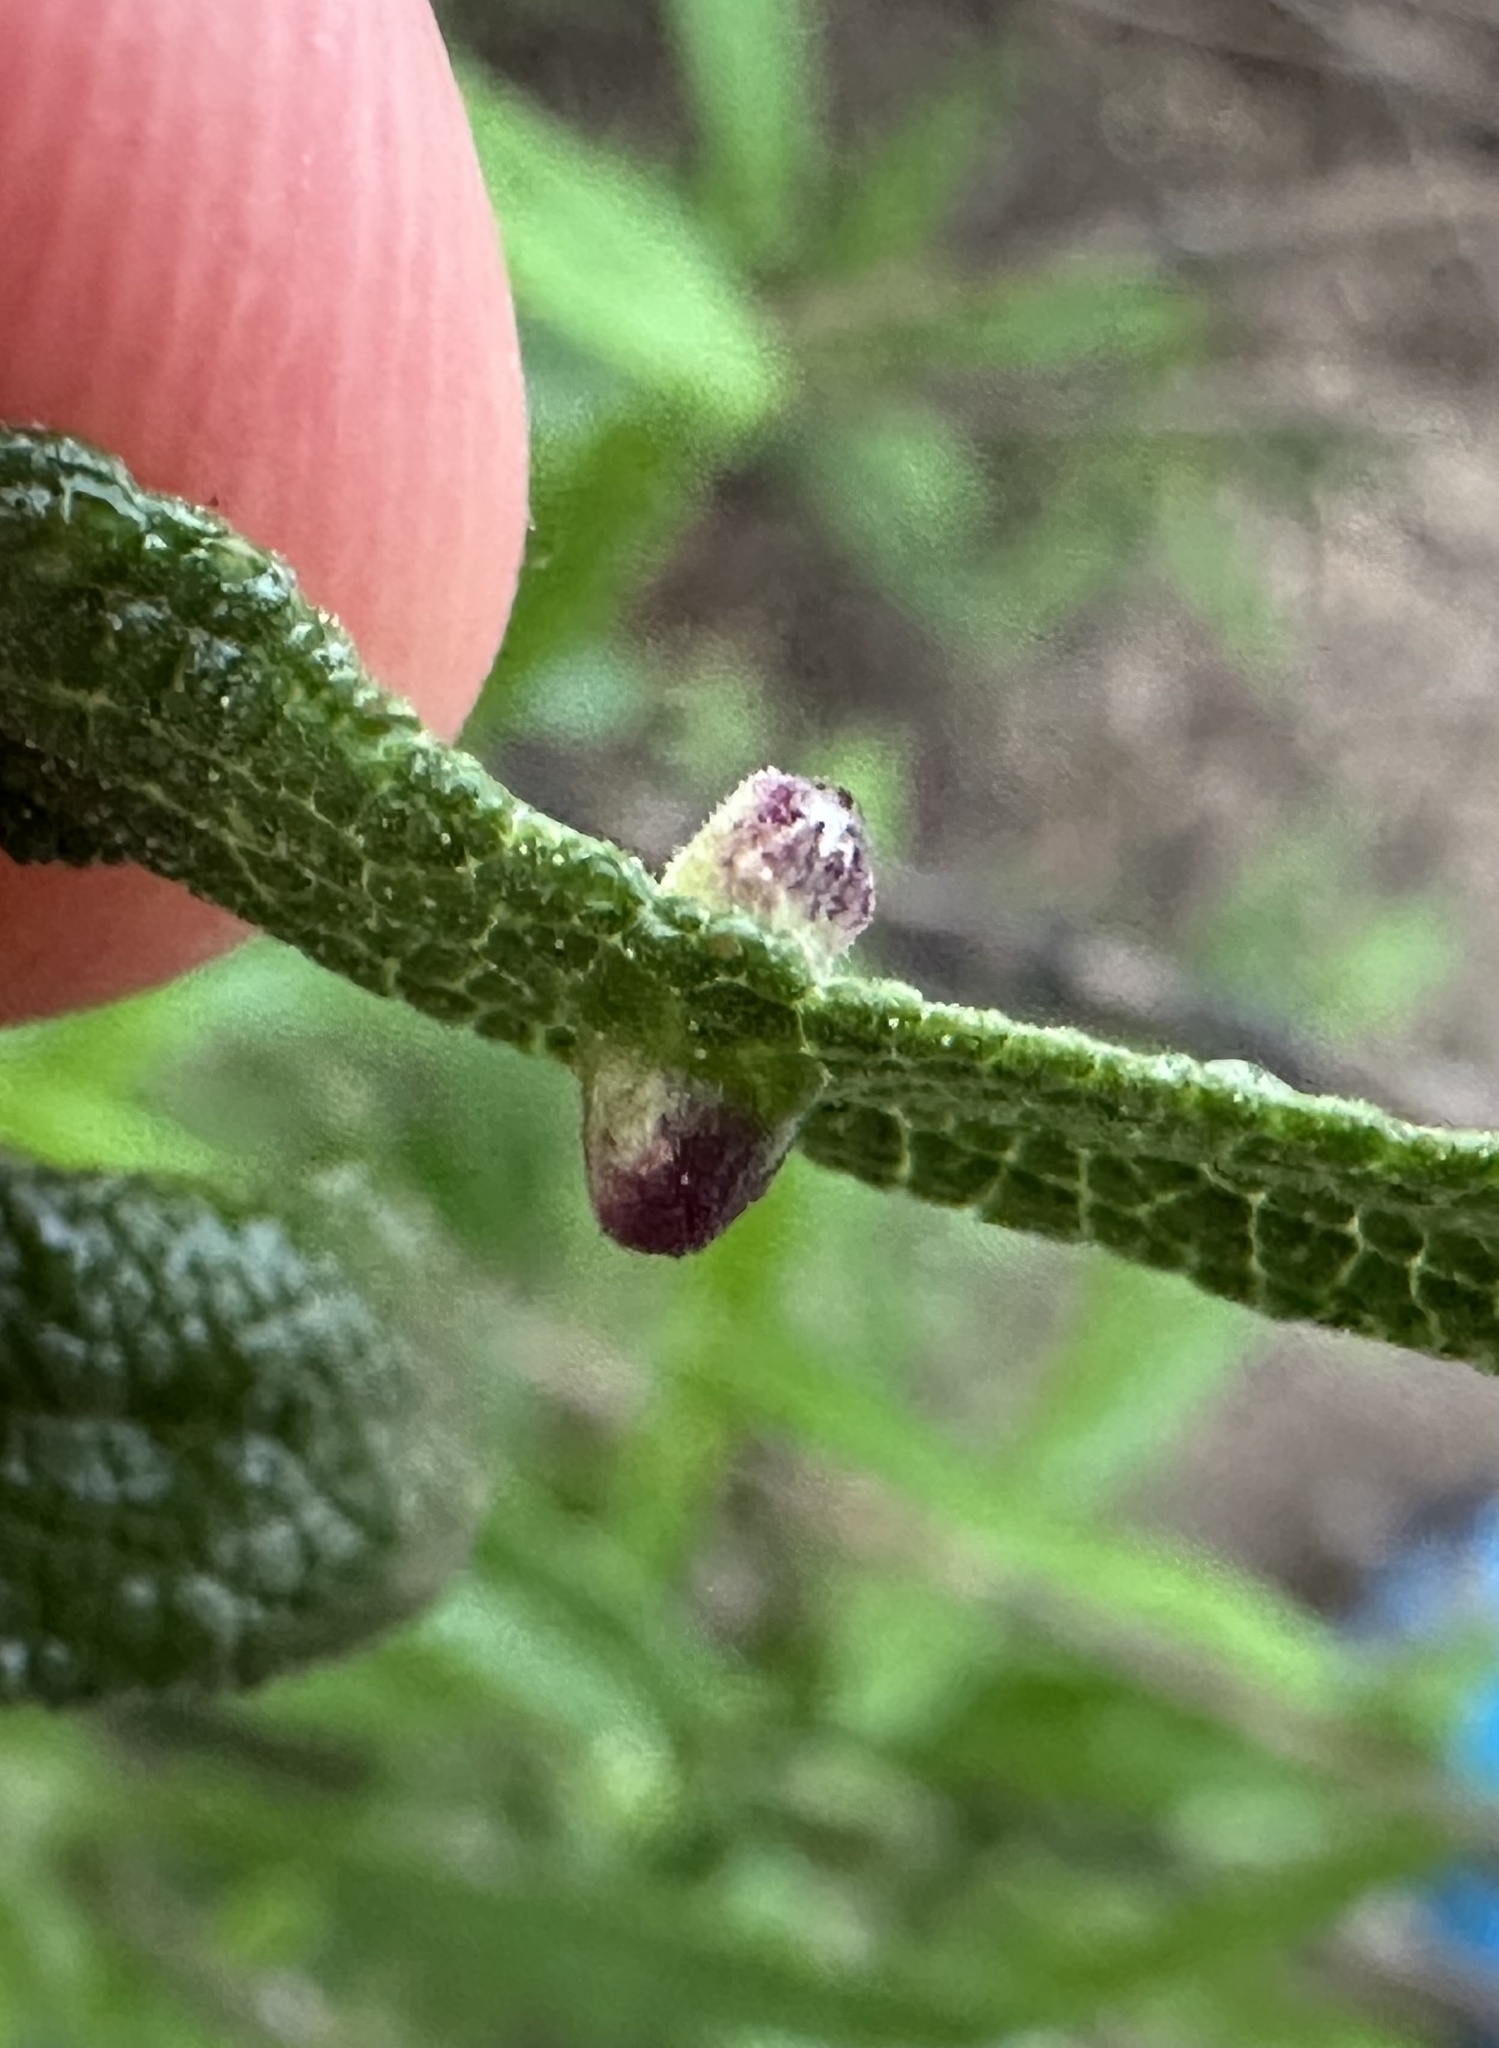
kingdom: Animalia
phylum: Arthropoda
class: Insecta
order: Diptera
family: Cecidomyiidae
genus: Rhopalomyia
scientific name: Rhopalomyia audibertiae
